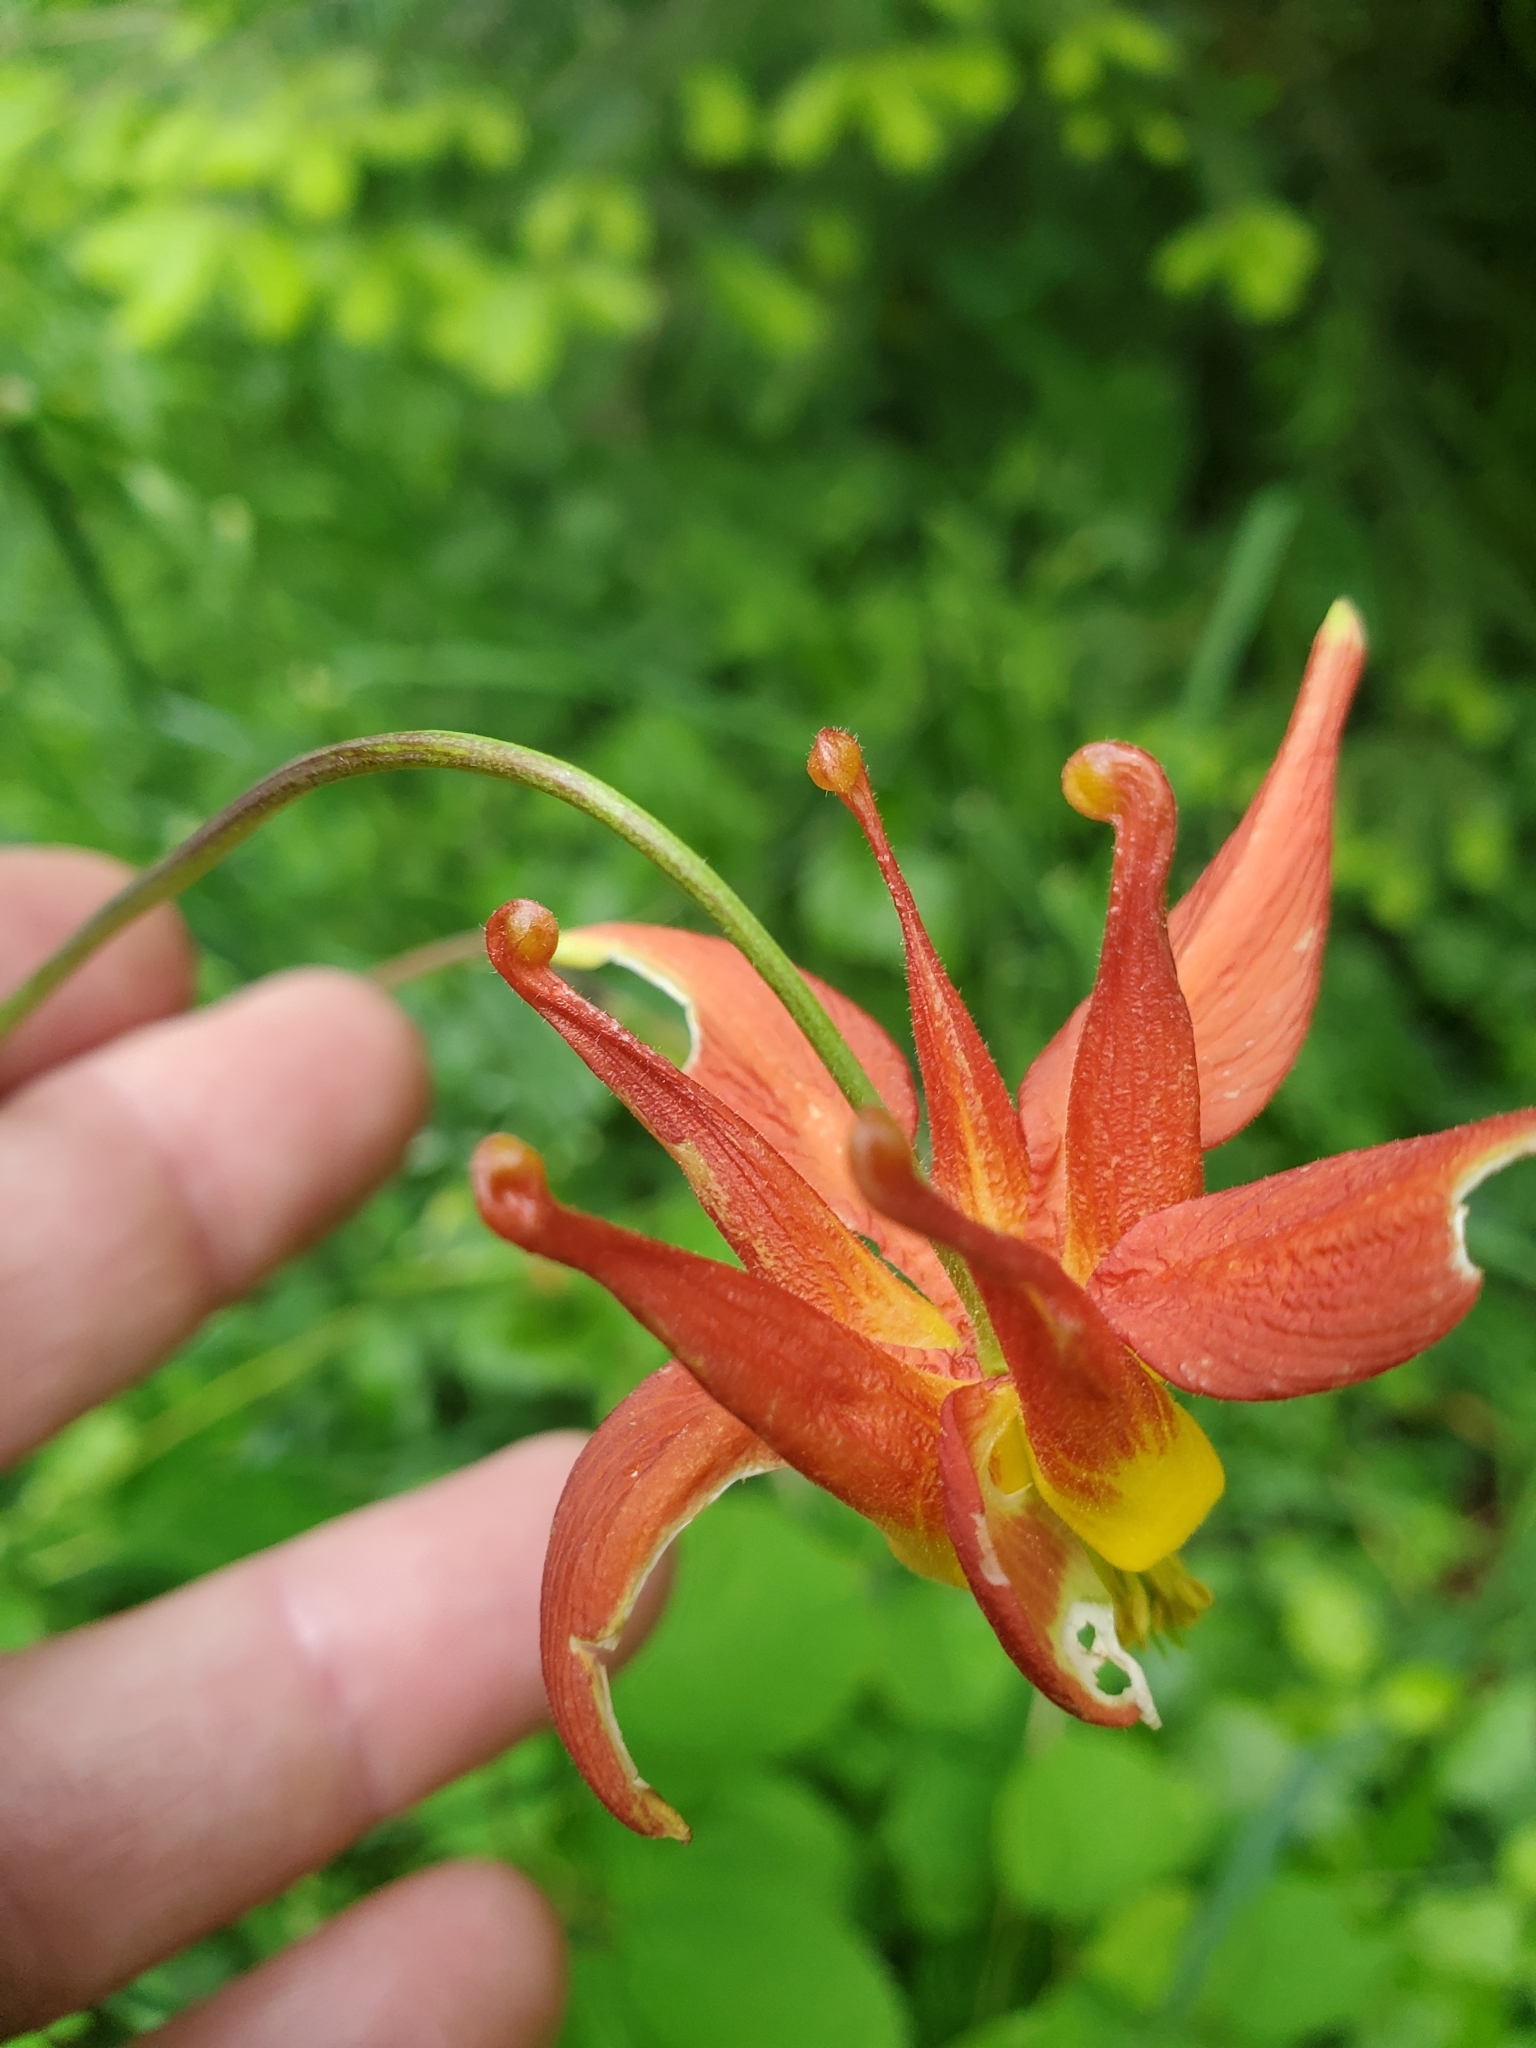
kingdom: Plantae
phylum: Tracheophyta
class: Magnoliopsida
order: Ranunculales
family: Ranunculaceae
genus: Aquilegia
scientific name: Aquilegia formosa
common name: Sitka columbine
